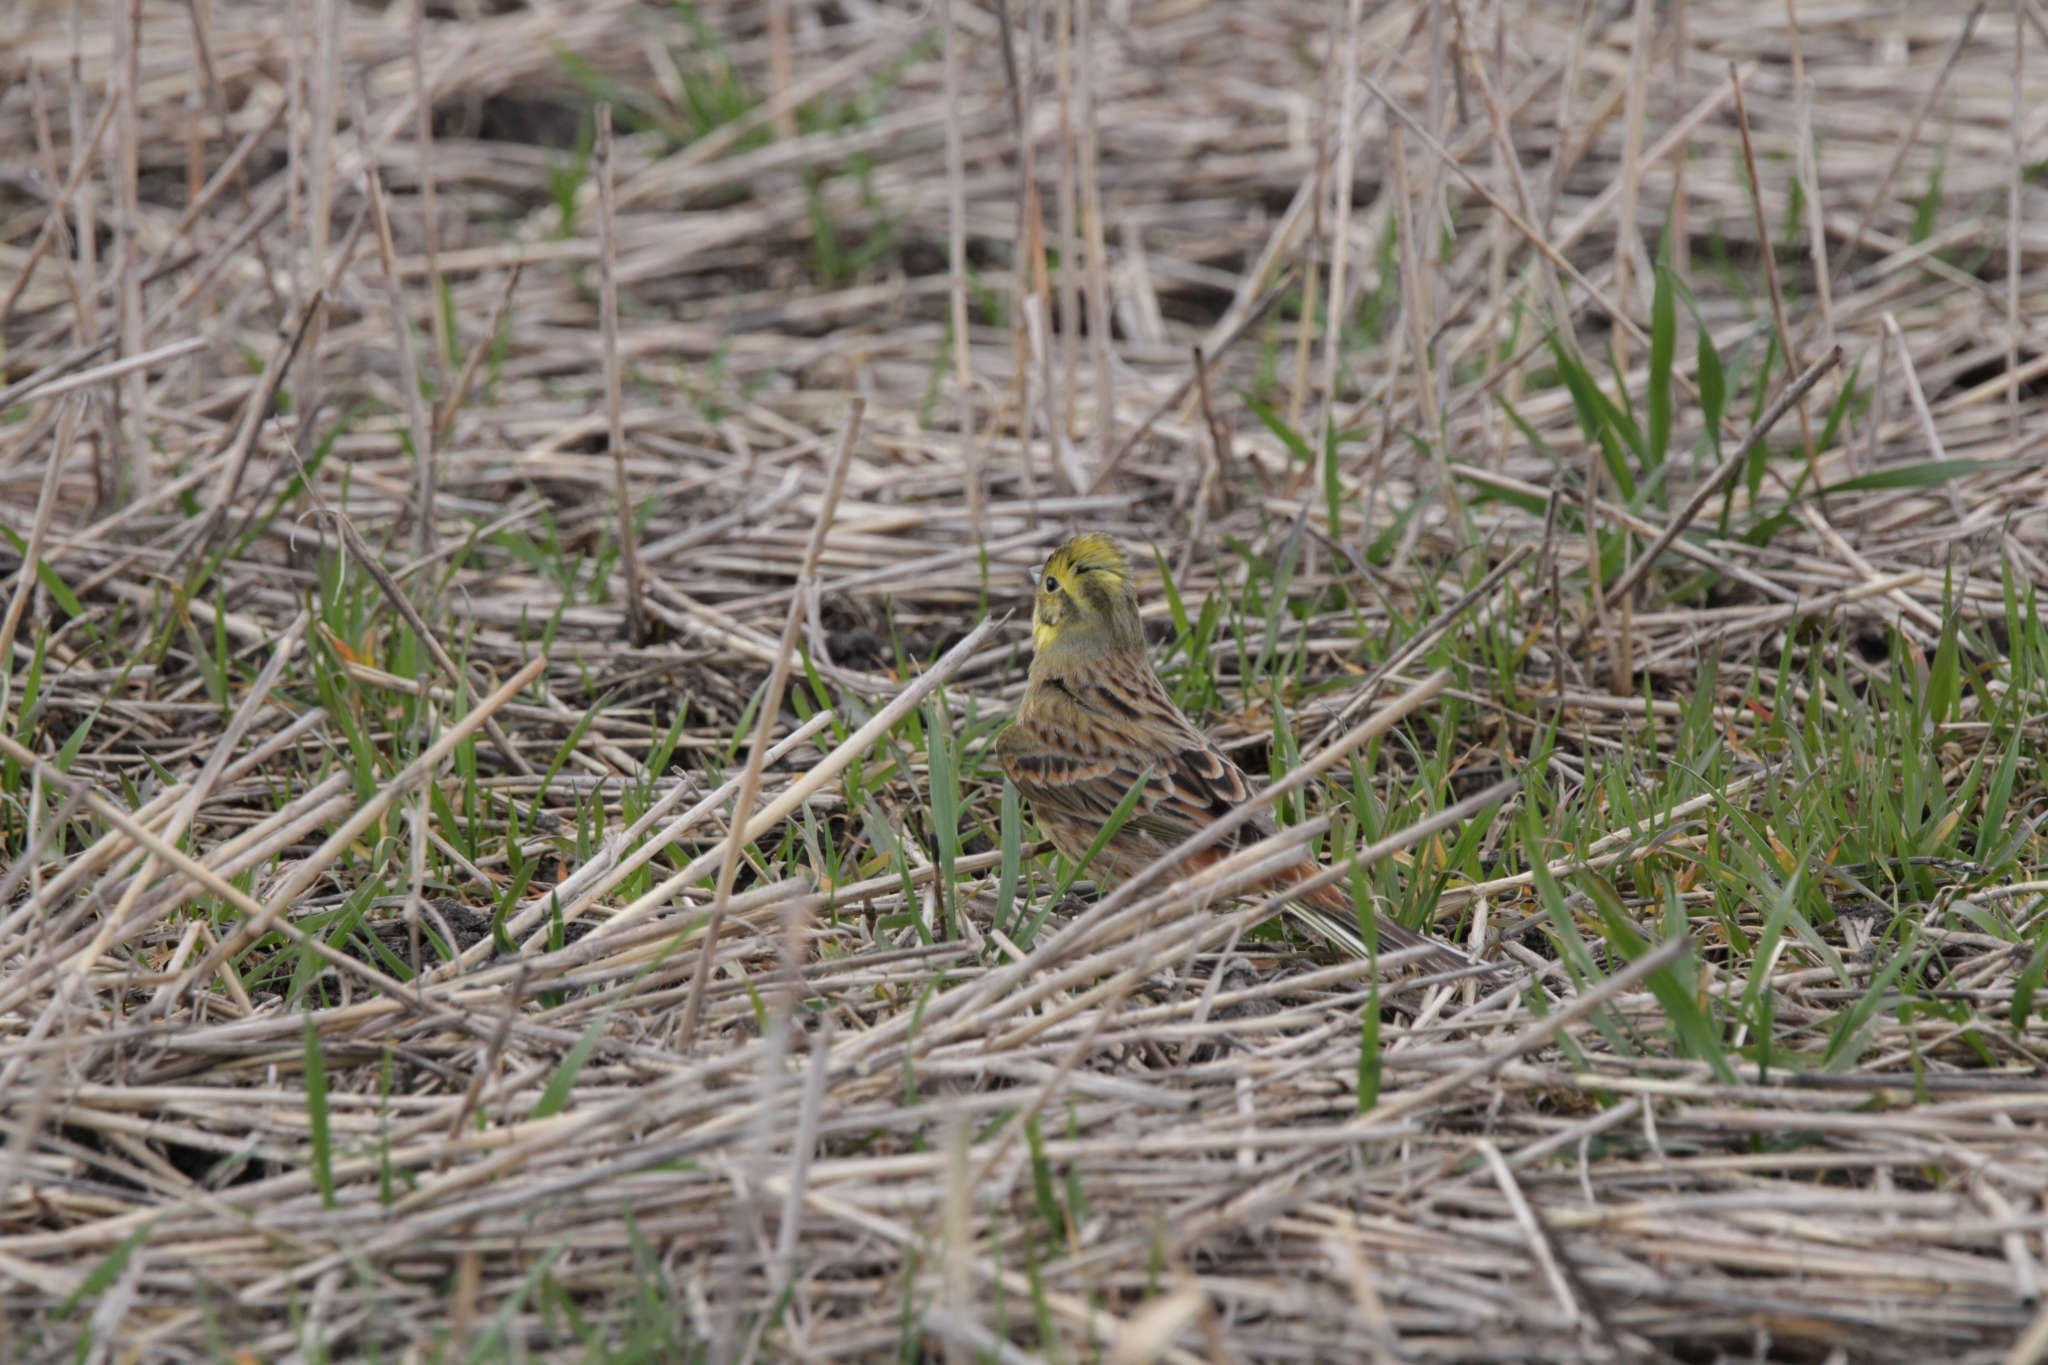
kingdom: Animalia
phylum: Chordata
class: Aves
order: Passeriformes
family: Emberizidae
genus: Emberiza
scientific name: Emberiza citrinella
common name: Yellowhammer
